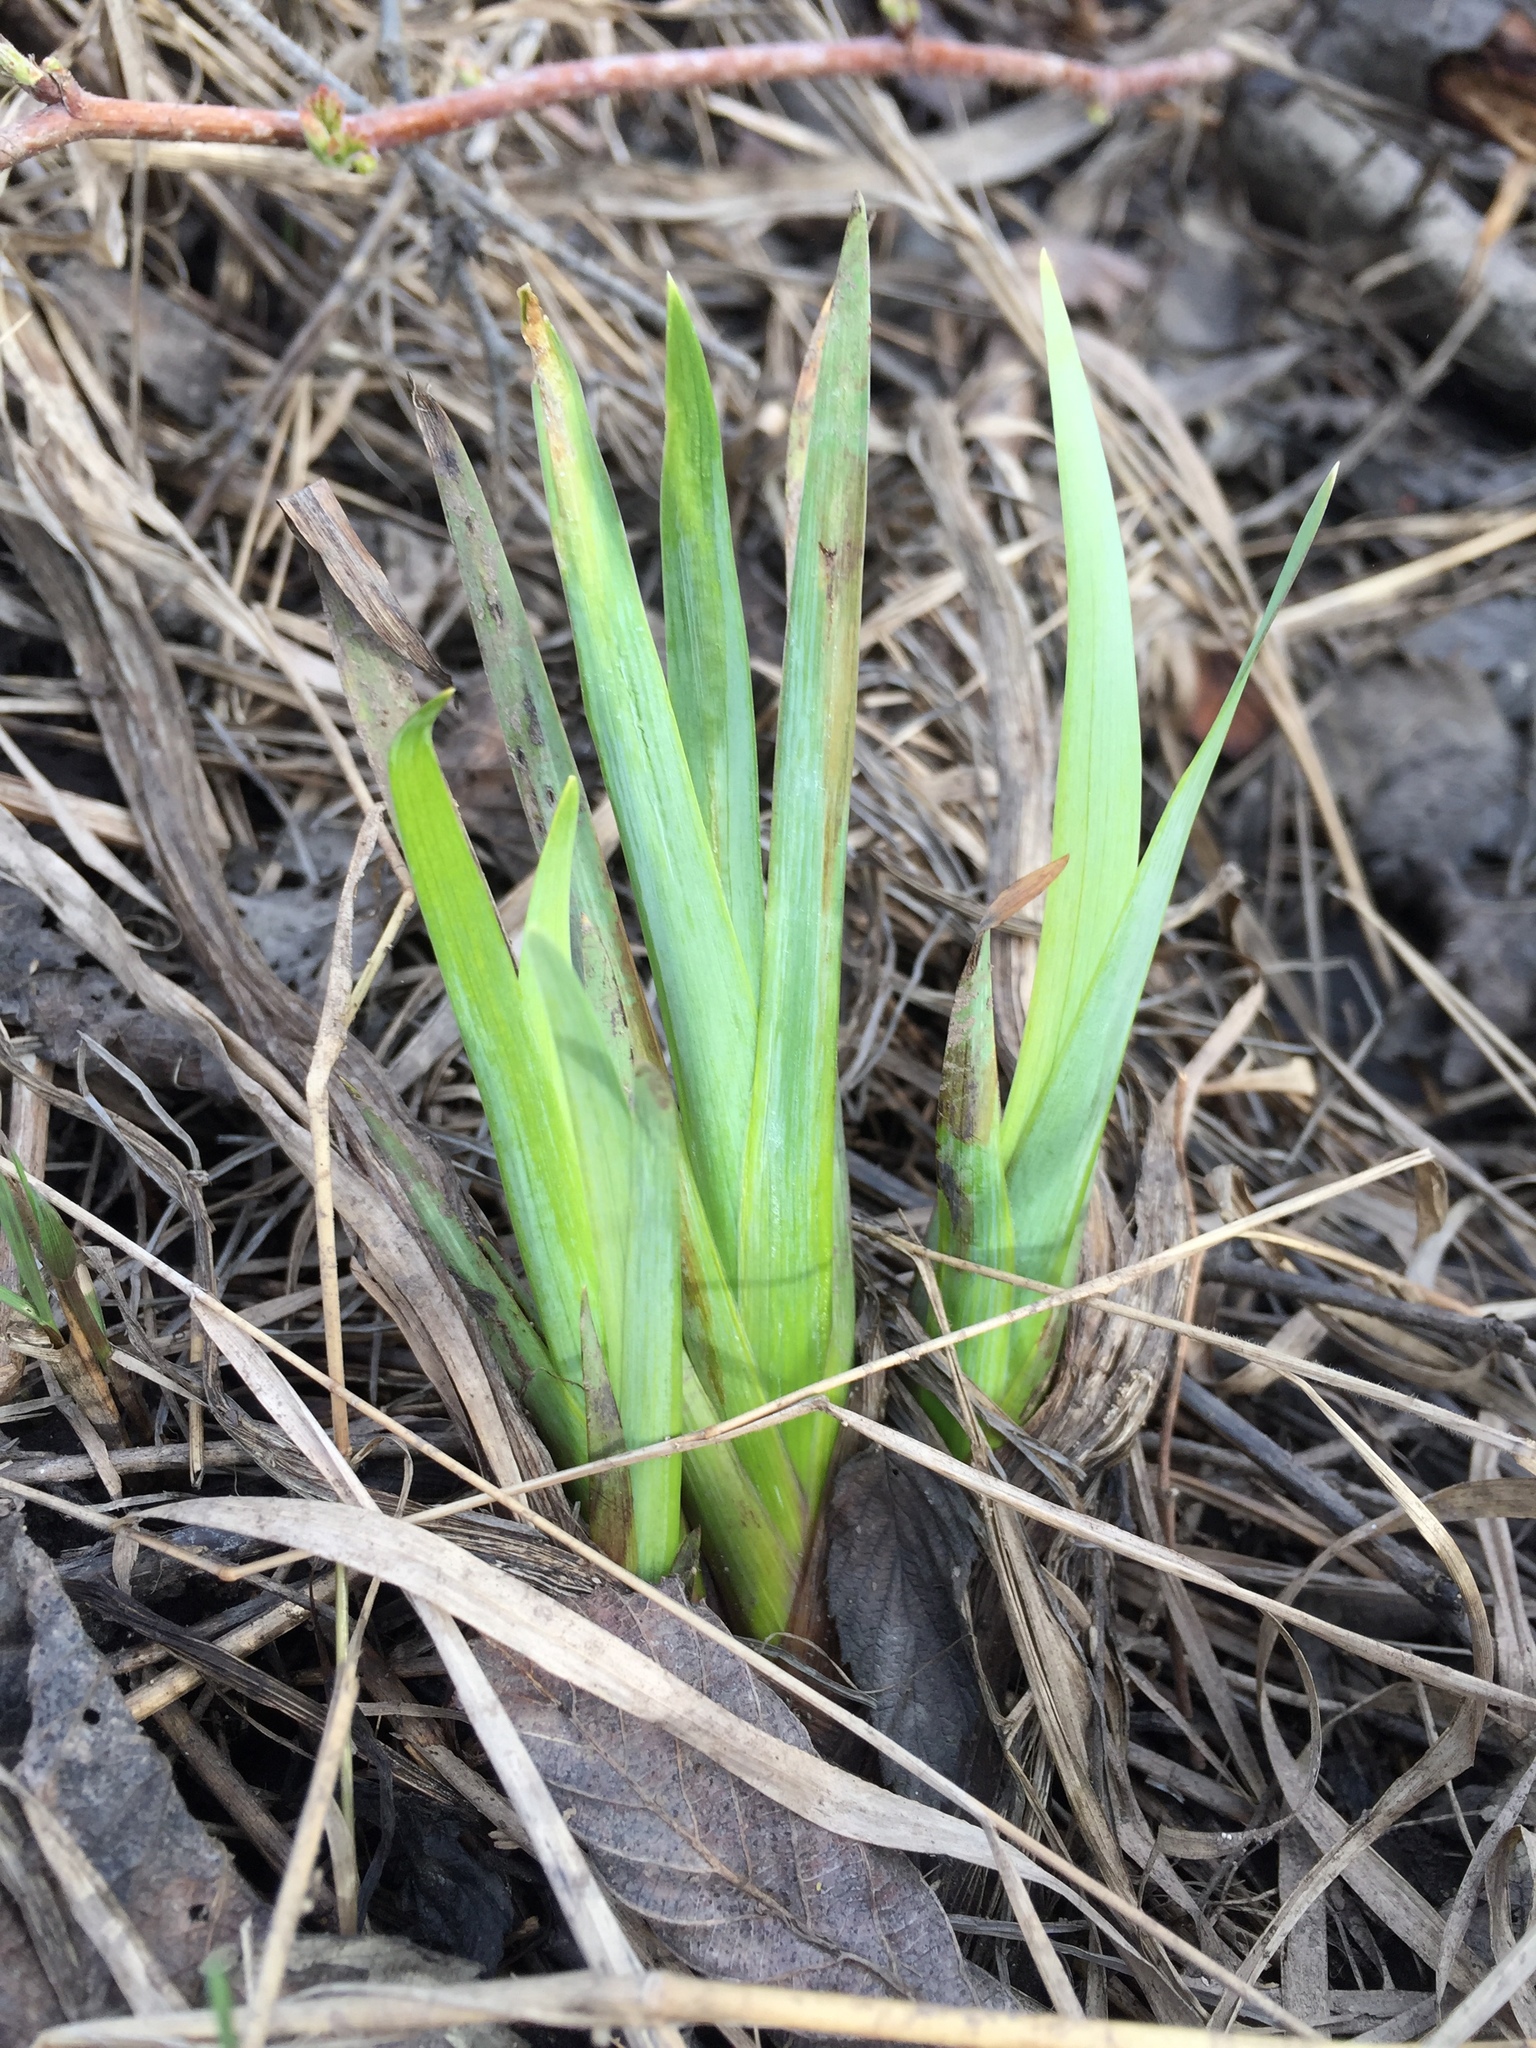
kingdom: Plantae
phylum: Tracheophyta
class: Liliopsida
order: Asparagales
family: Iridaceae
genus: Iris
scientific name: Iris versicolor
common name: Purple iris
